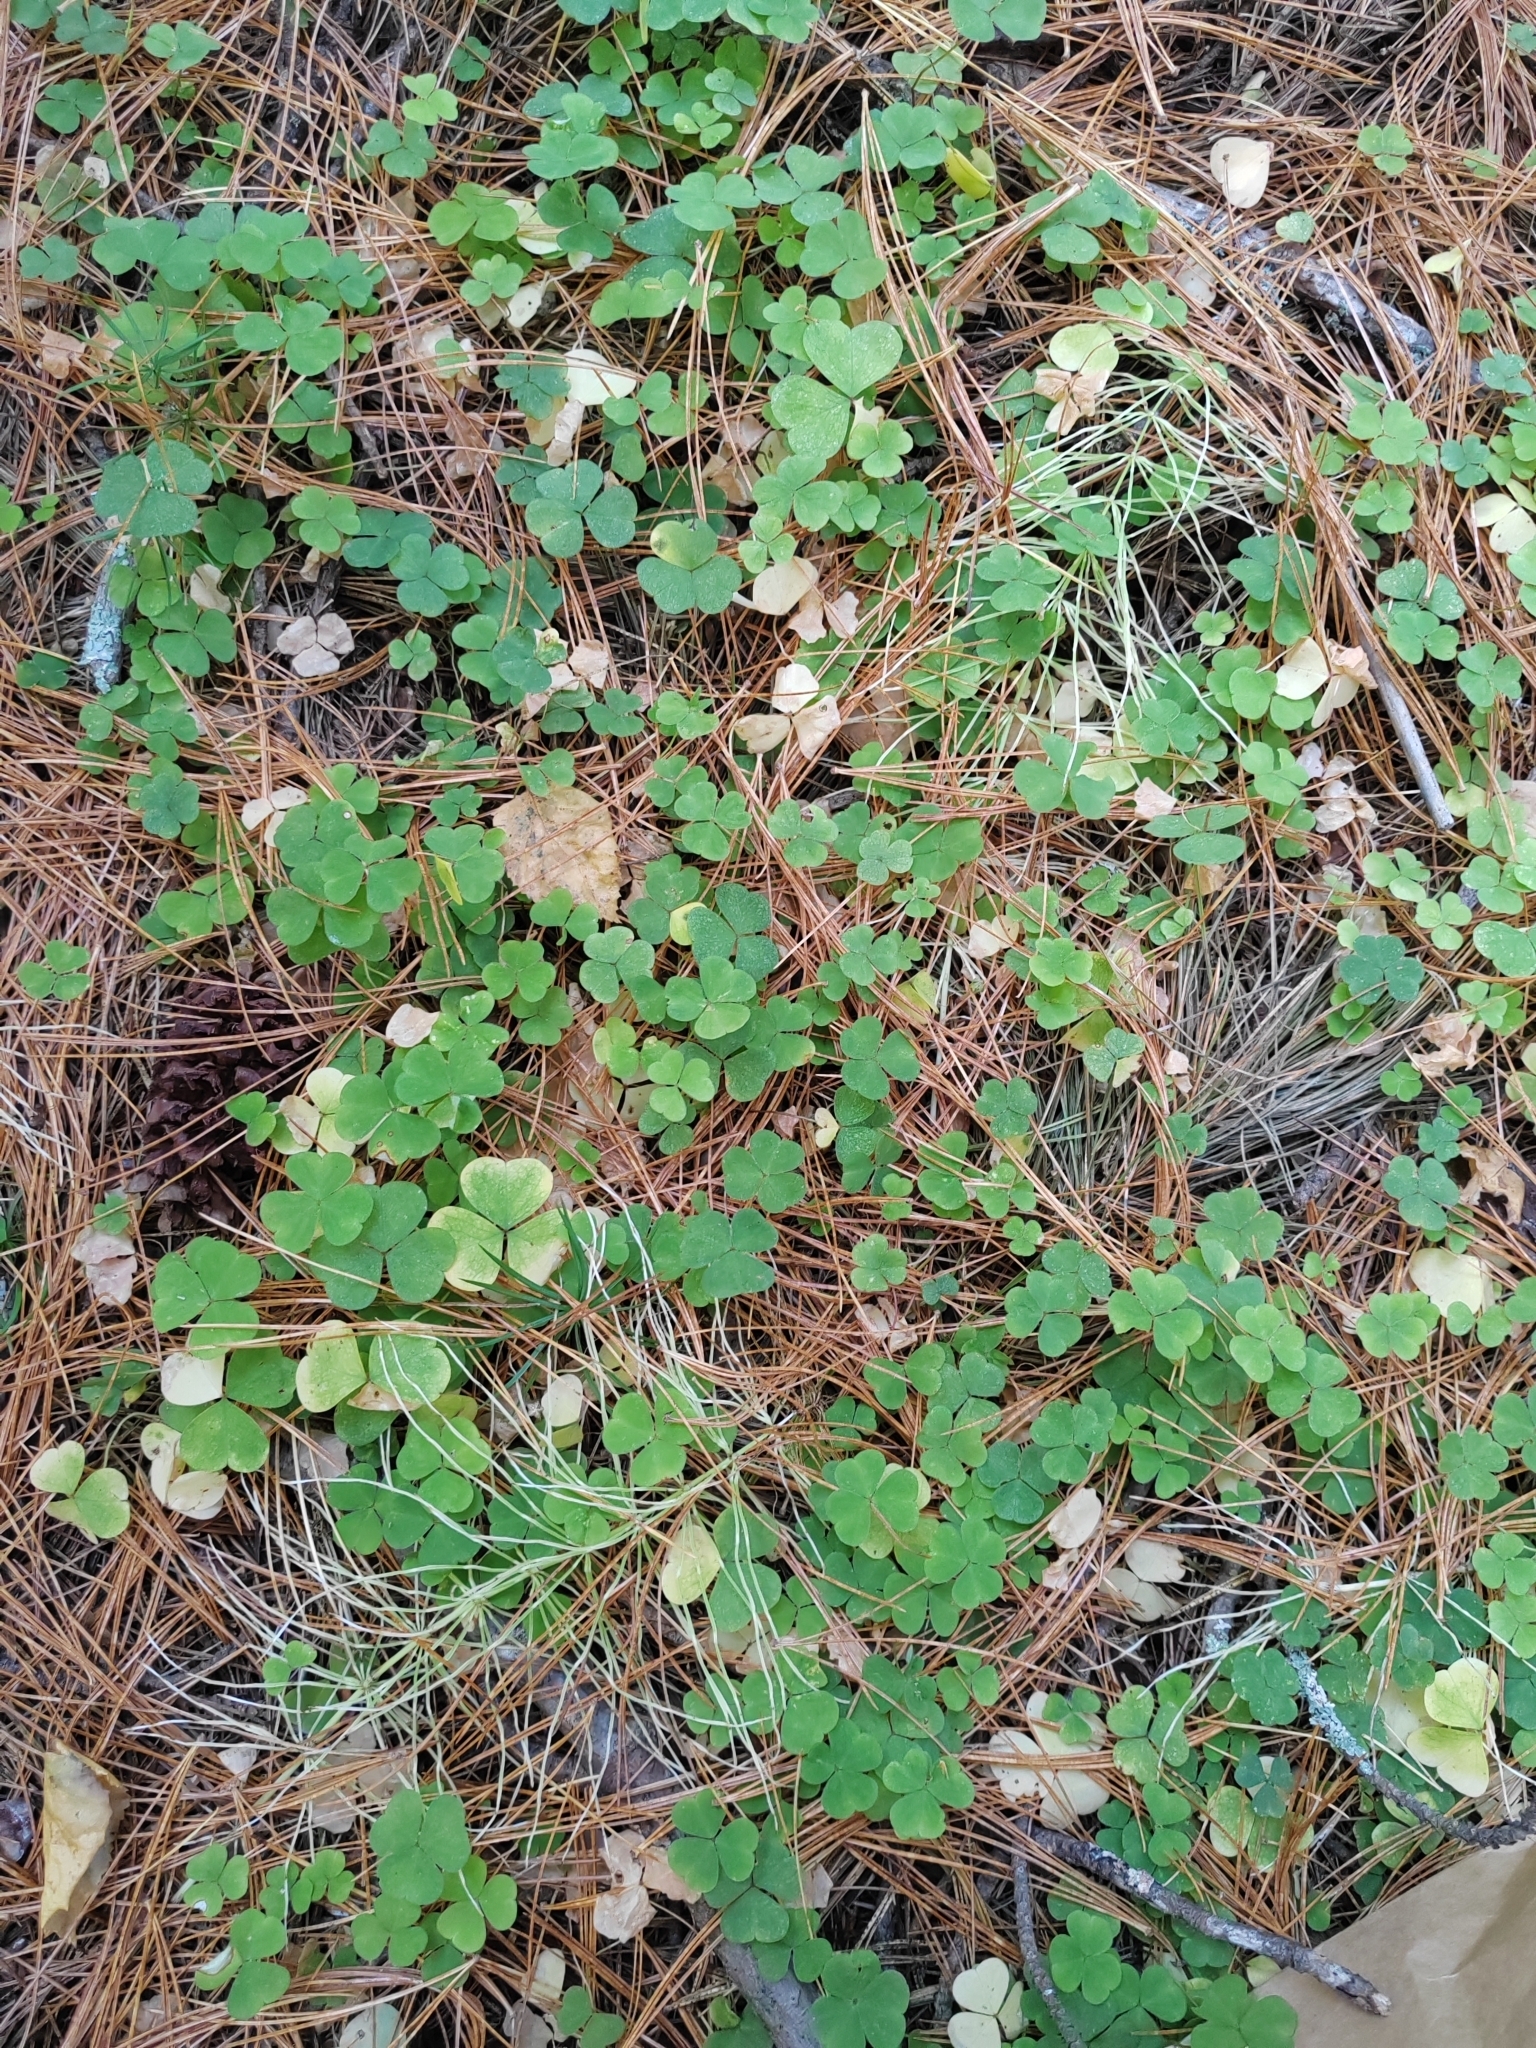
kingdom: Plantae
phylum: Tracheophyta
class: Magnoliopsida
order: Oxalidales
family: Oxalidaceae
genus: Oxalis
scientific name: Oxalis acetosella
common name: Wood-sorrel
